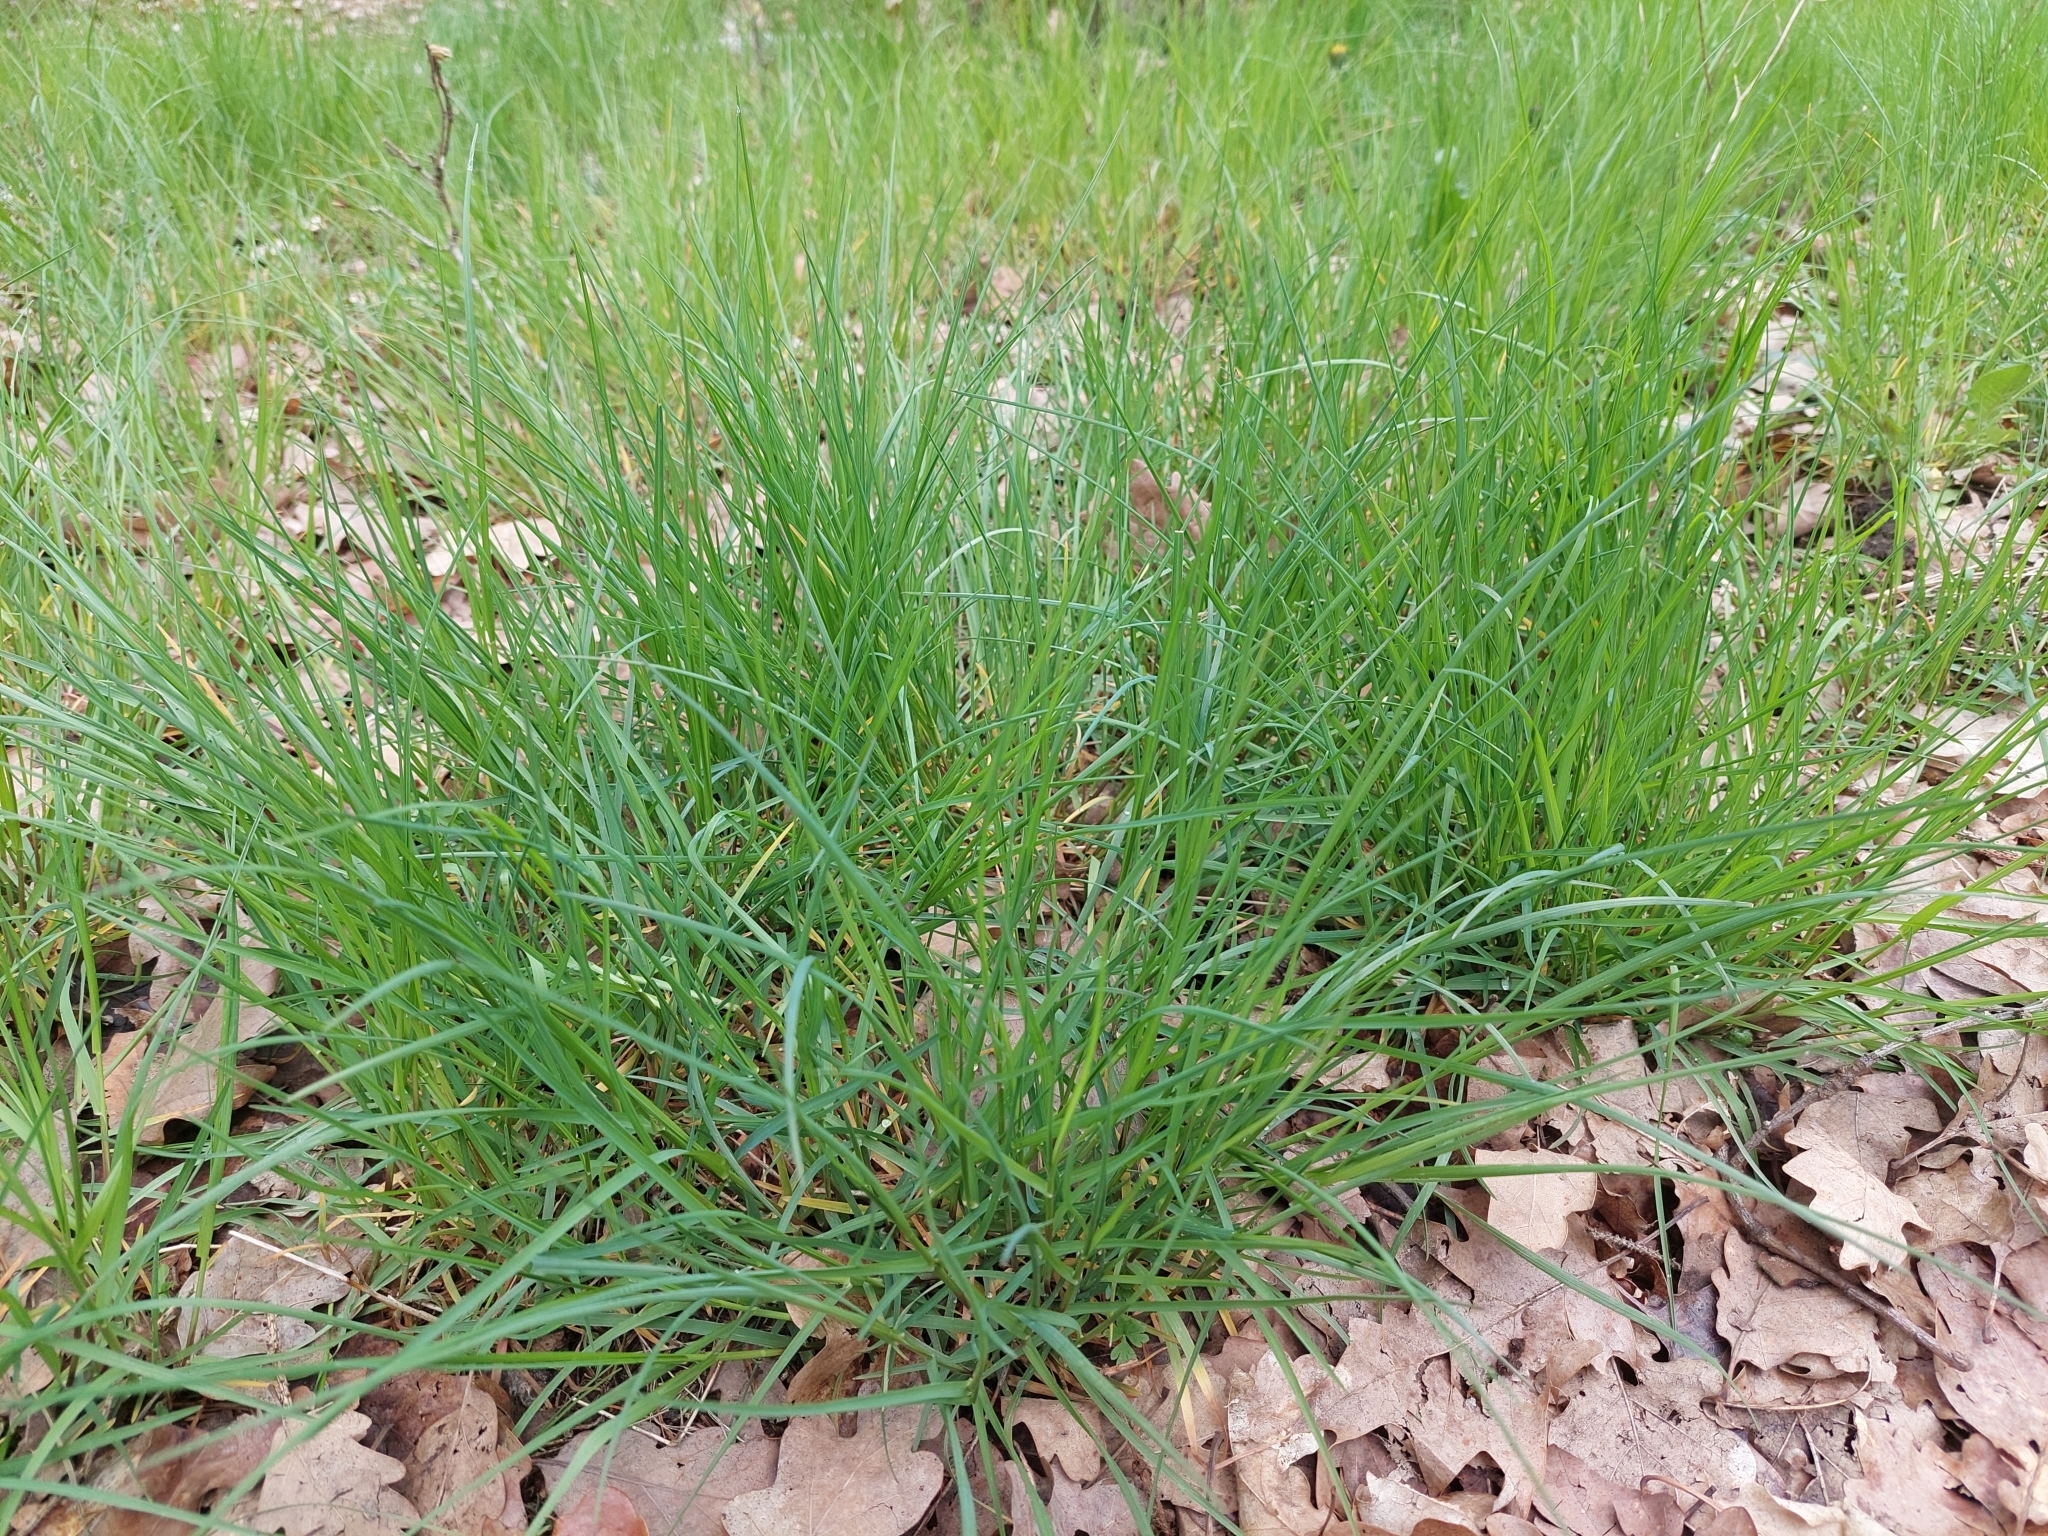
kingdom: Plantae
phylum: Tracheophyta
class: Liliopsida
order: Poales
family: Poaceae
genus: Poa
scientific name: Poa nemoralis
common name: Wood bluegrass
